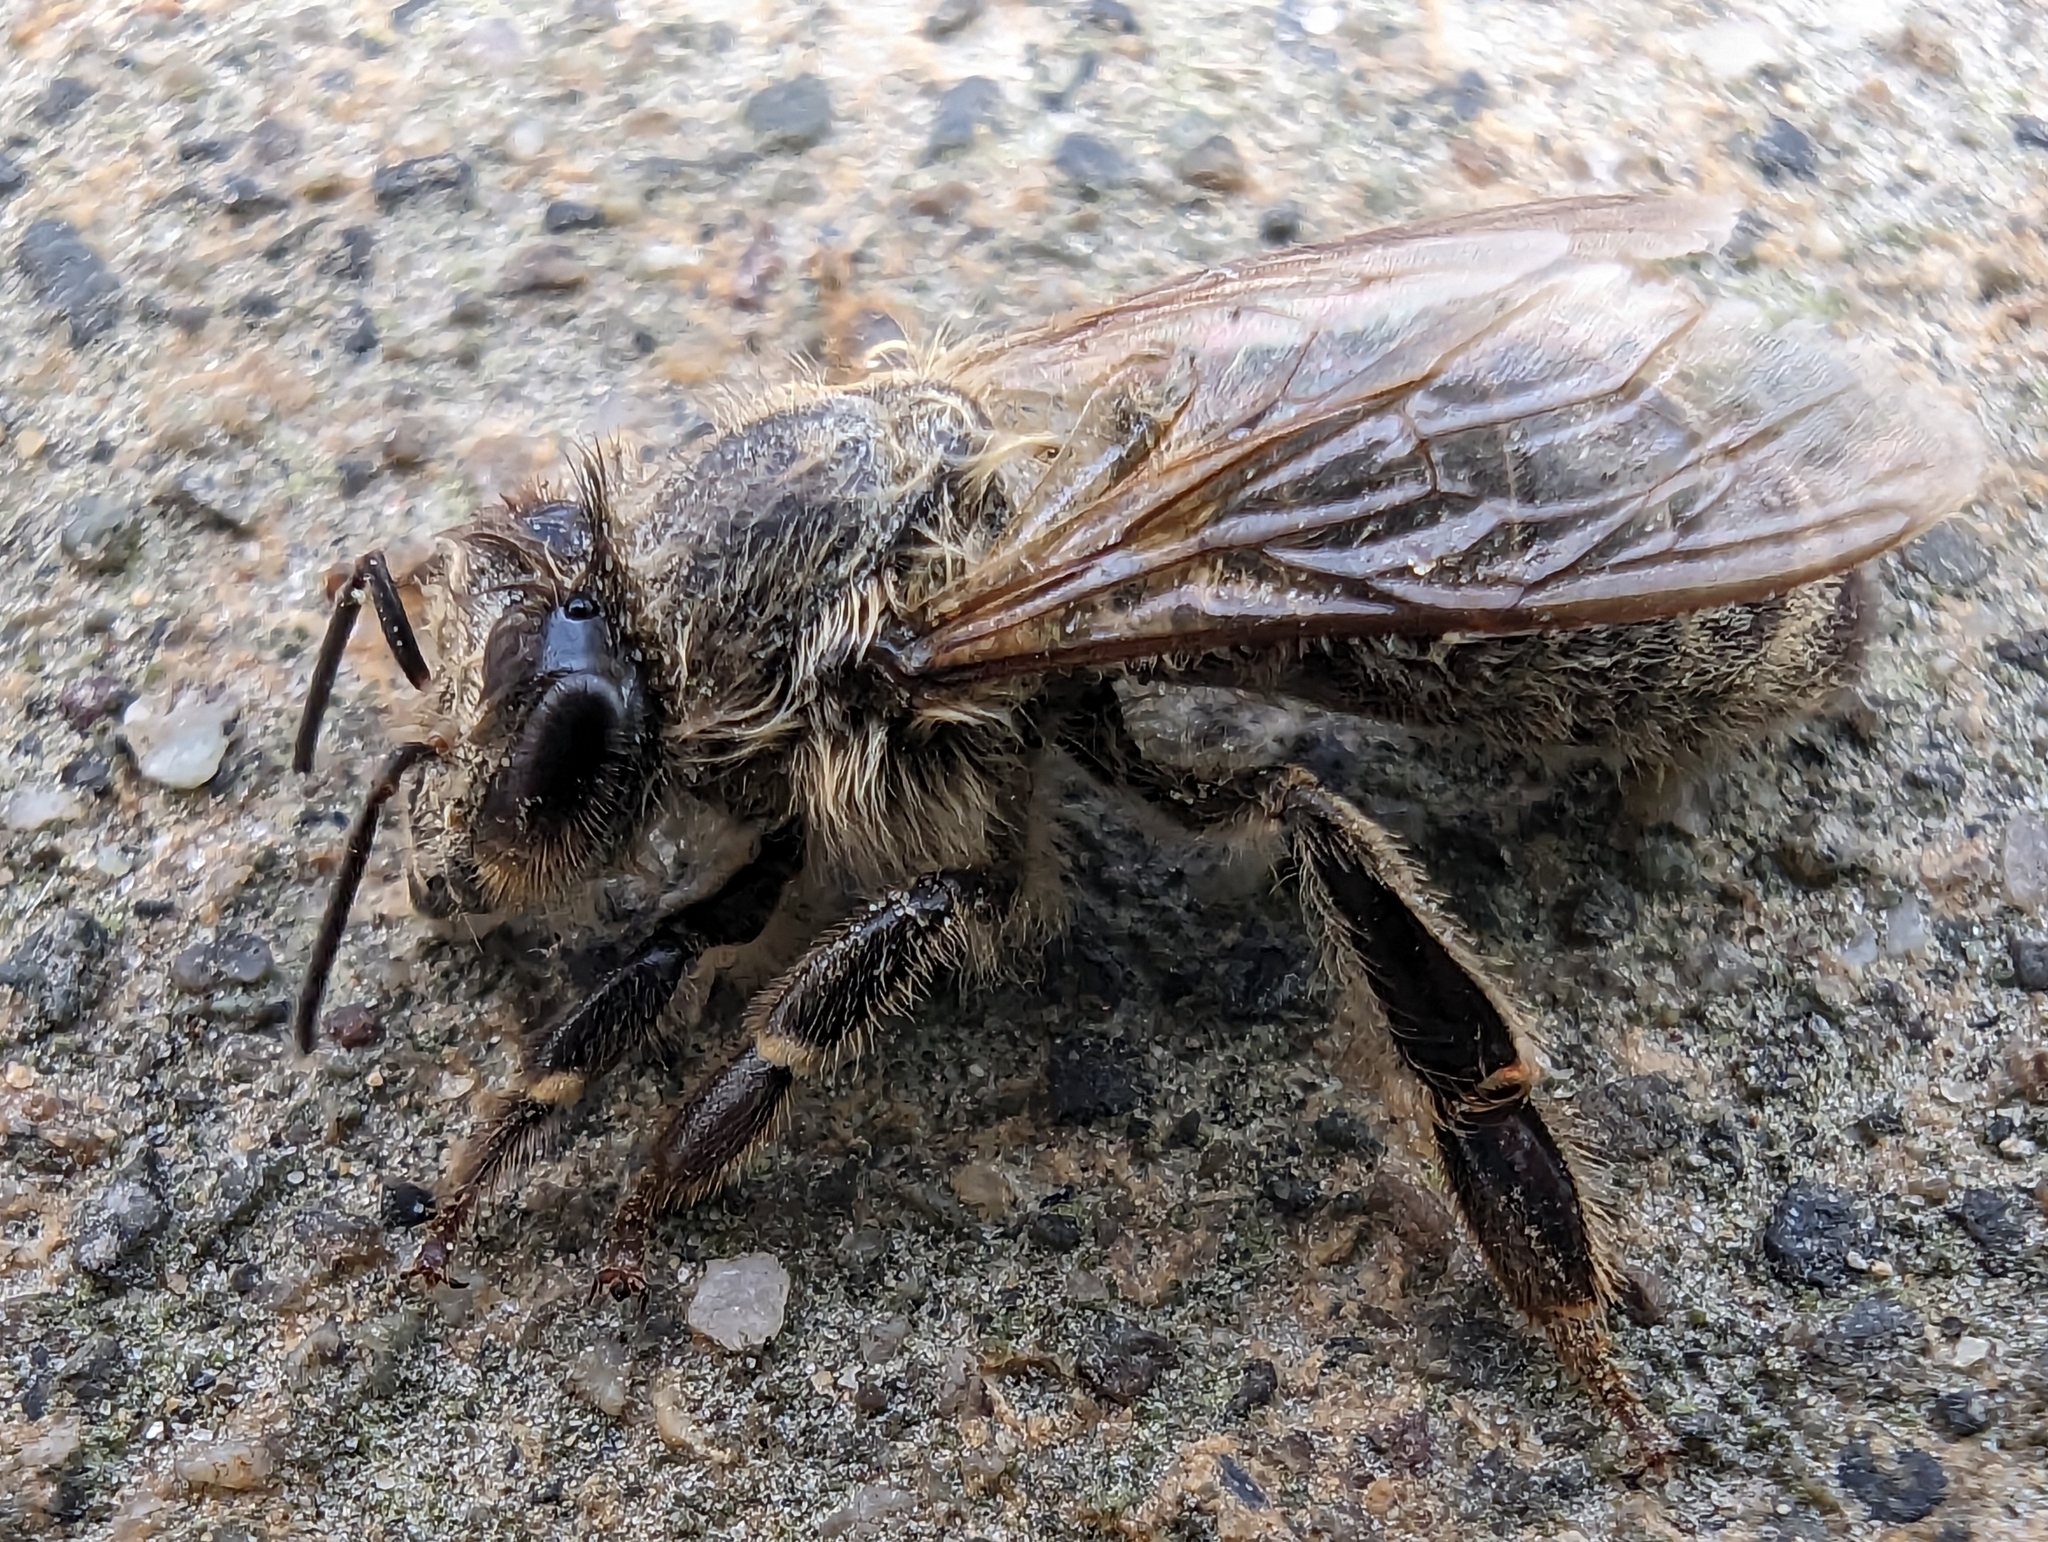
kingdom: Animalia
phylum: Arthropoda
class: Insecta
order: Hymenoptera
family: Apidae
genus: Apis
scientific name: Apis mellifera
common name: Honey bee
